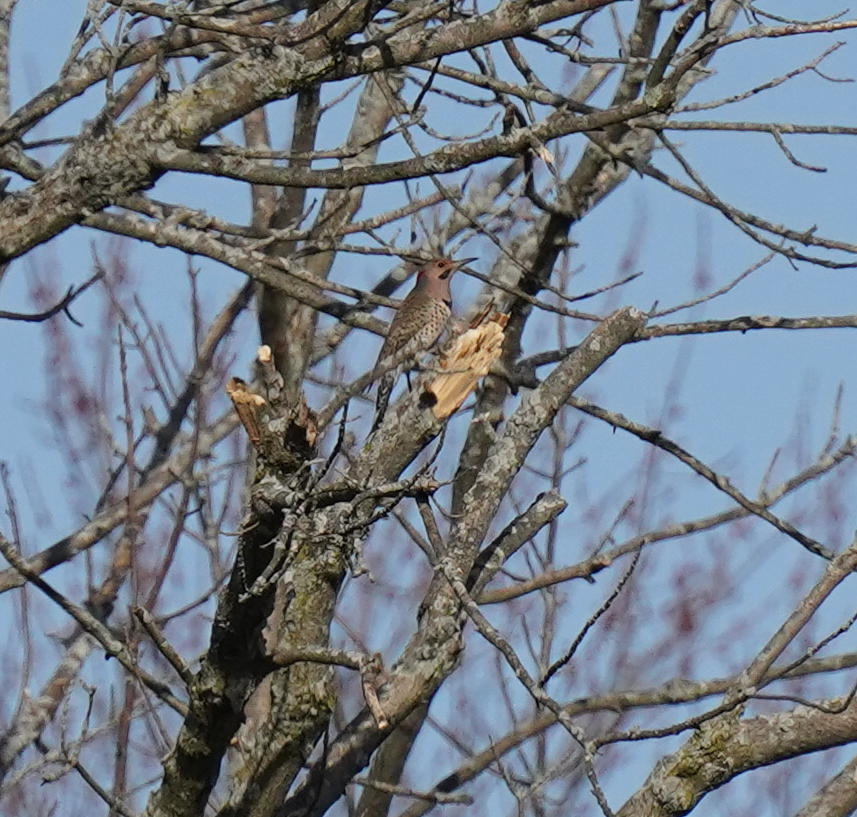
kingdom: Animalia
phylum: Chordata
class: Aves
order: Piciformes
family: Picidae
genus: Colaptes
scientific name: Colaptes auratus
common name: Northern flicker
